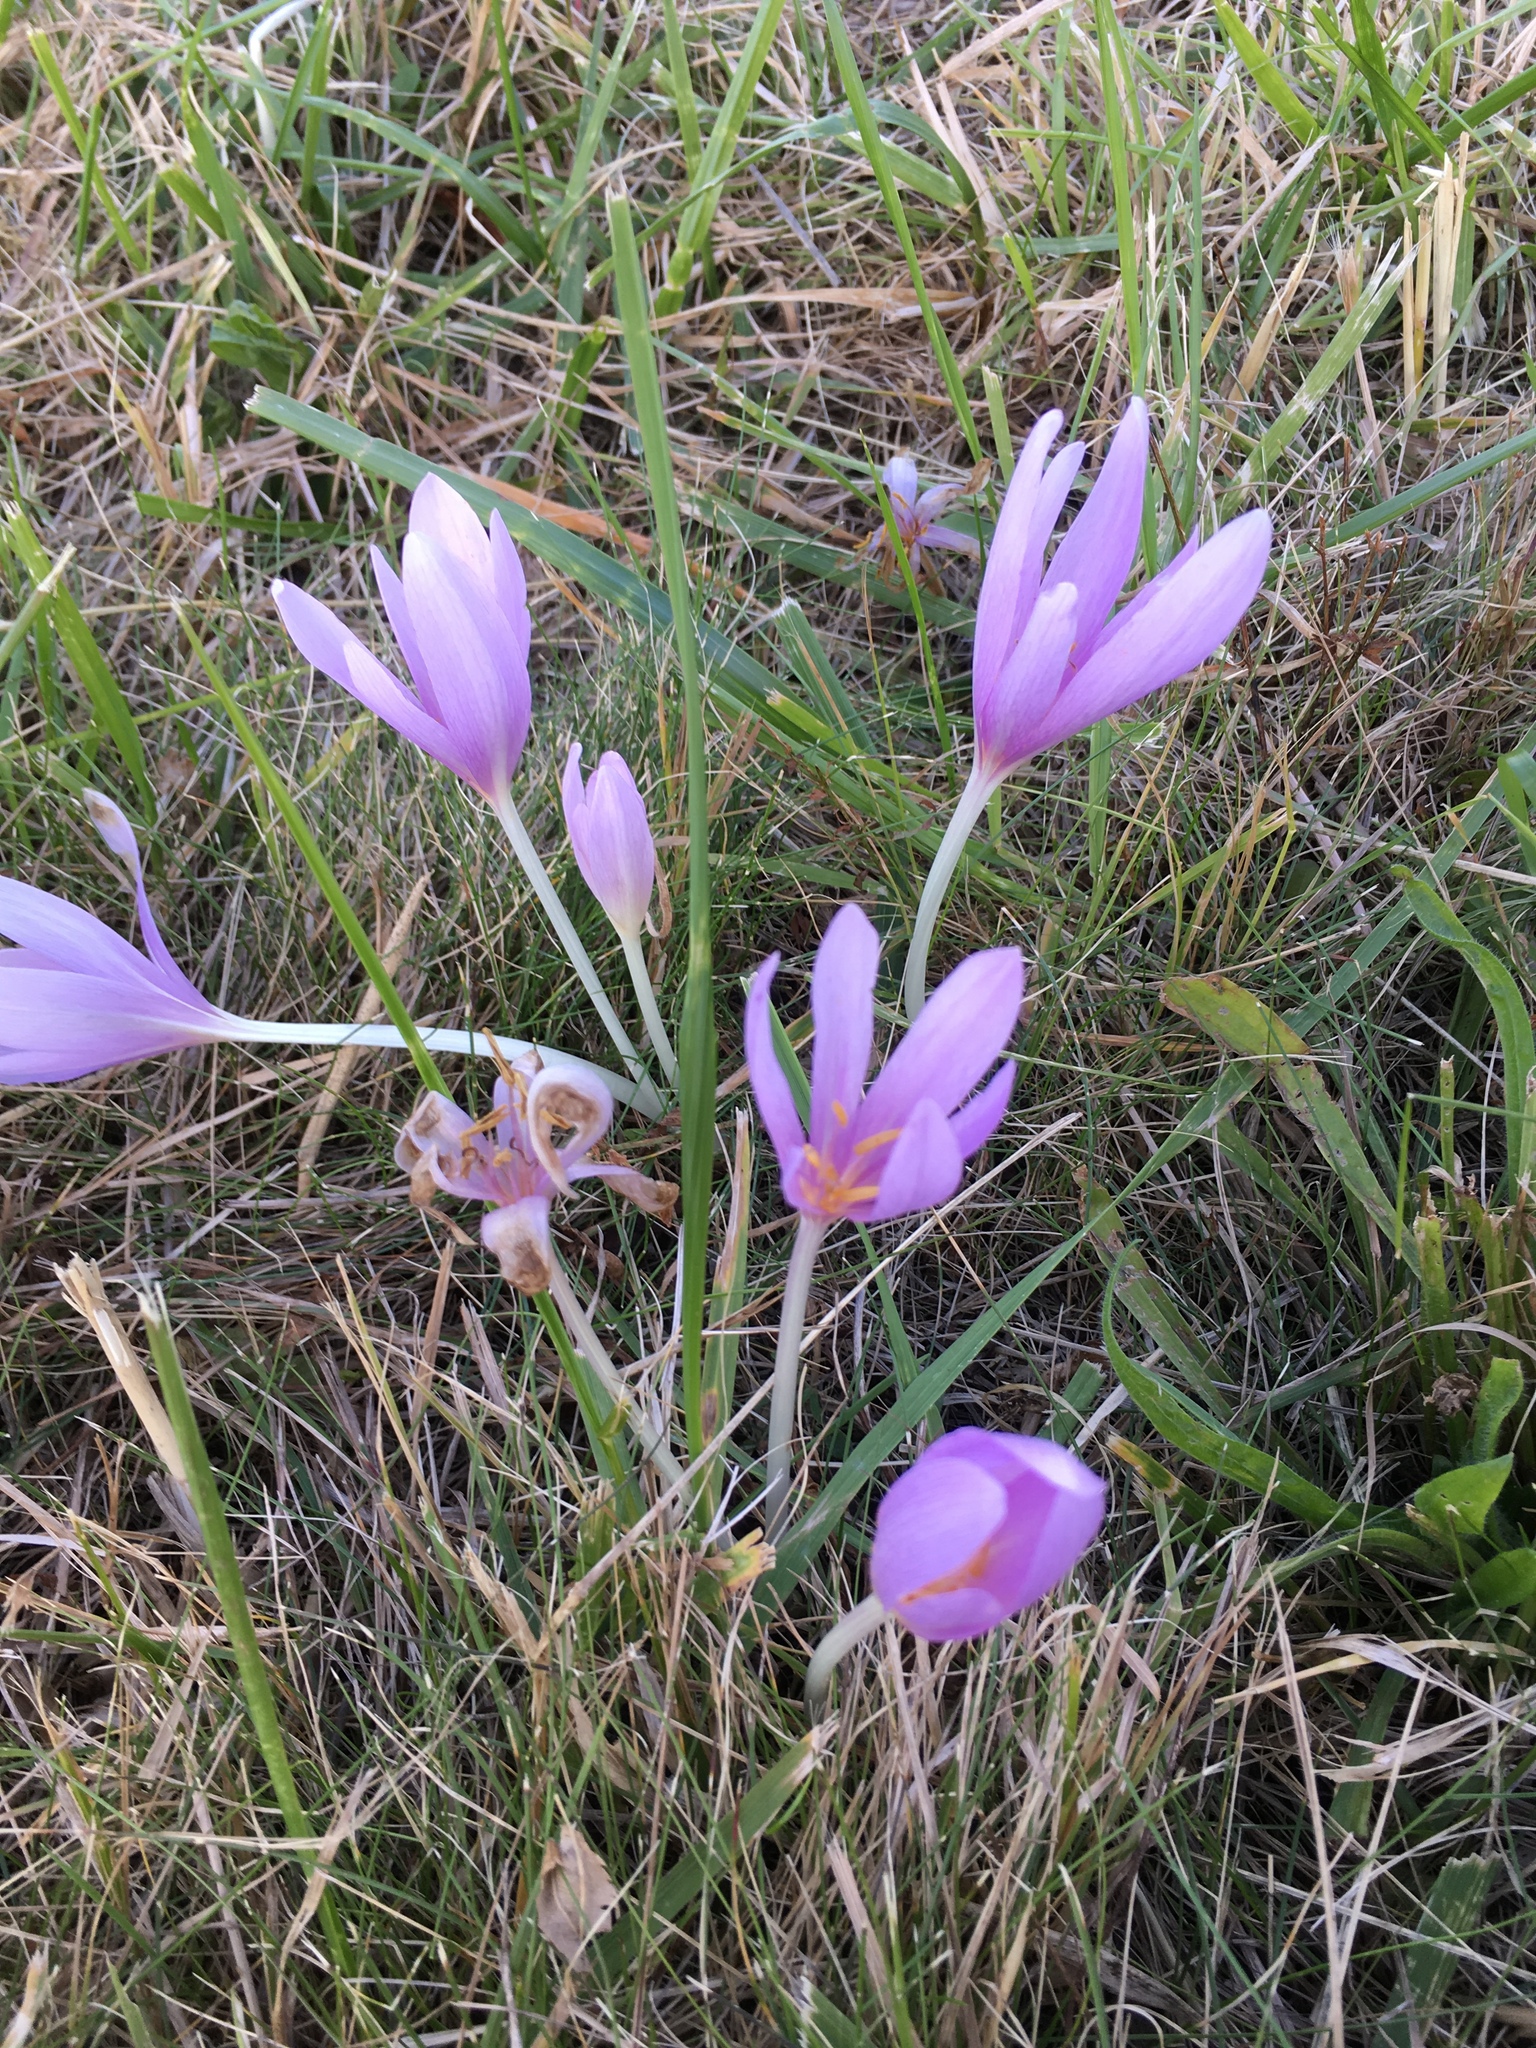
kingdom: Plantae
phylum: Tracheophyta
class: Liliopsida
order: Liliales
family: Colchicaceae
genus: Colchicum
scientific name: Colchicum autumnale
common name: Autumn crocus
